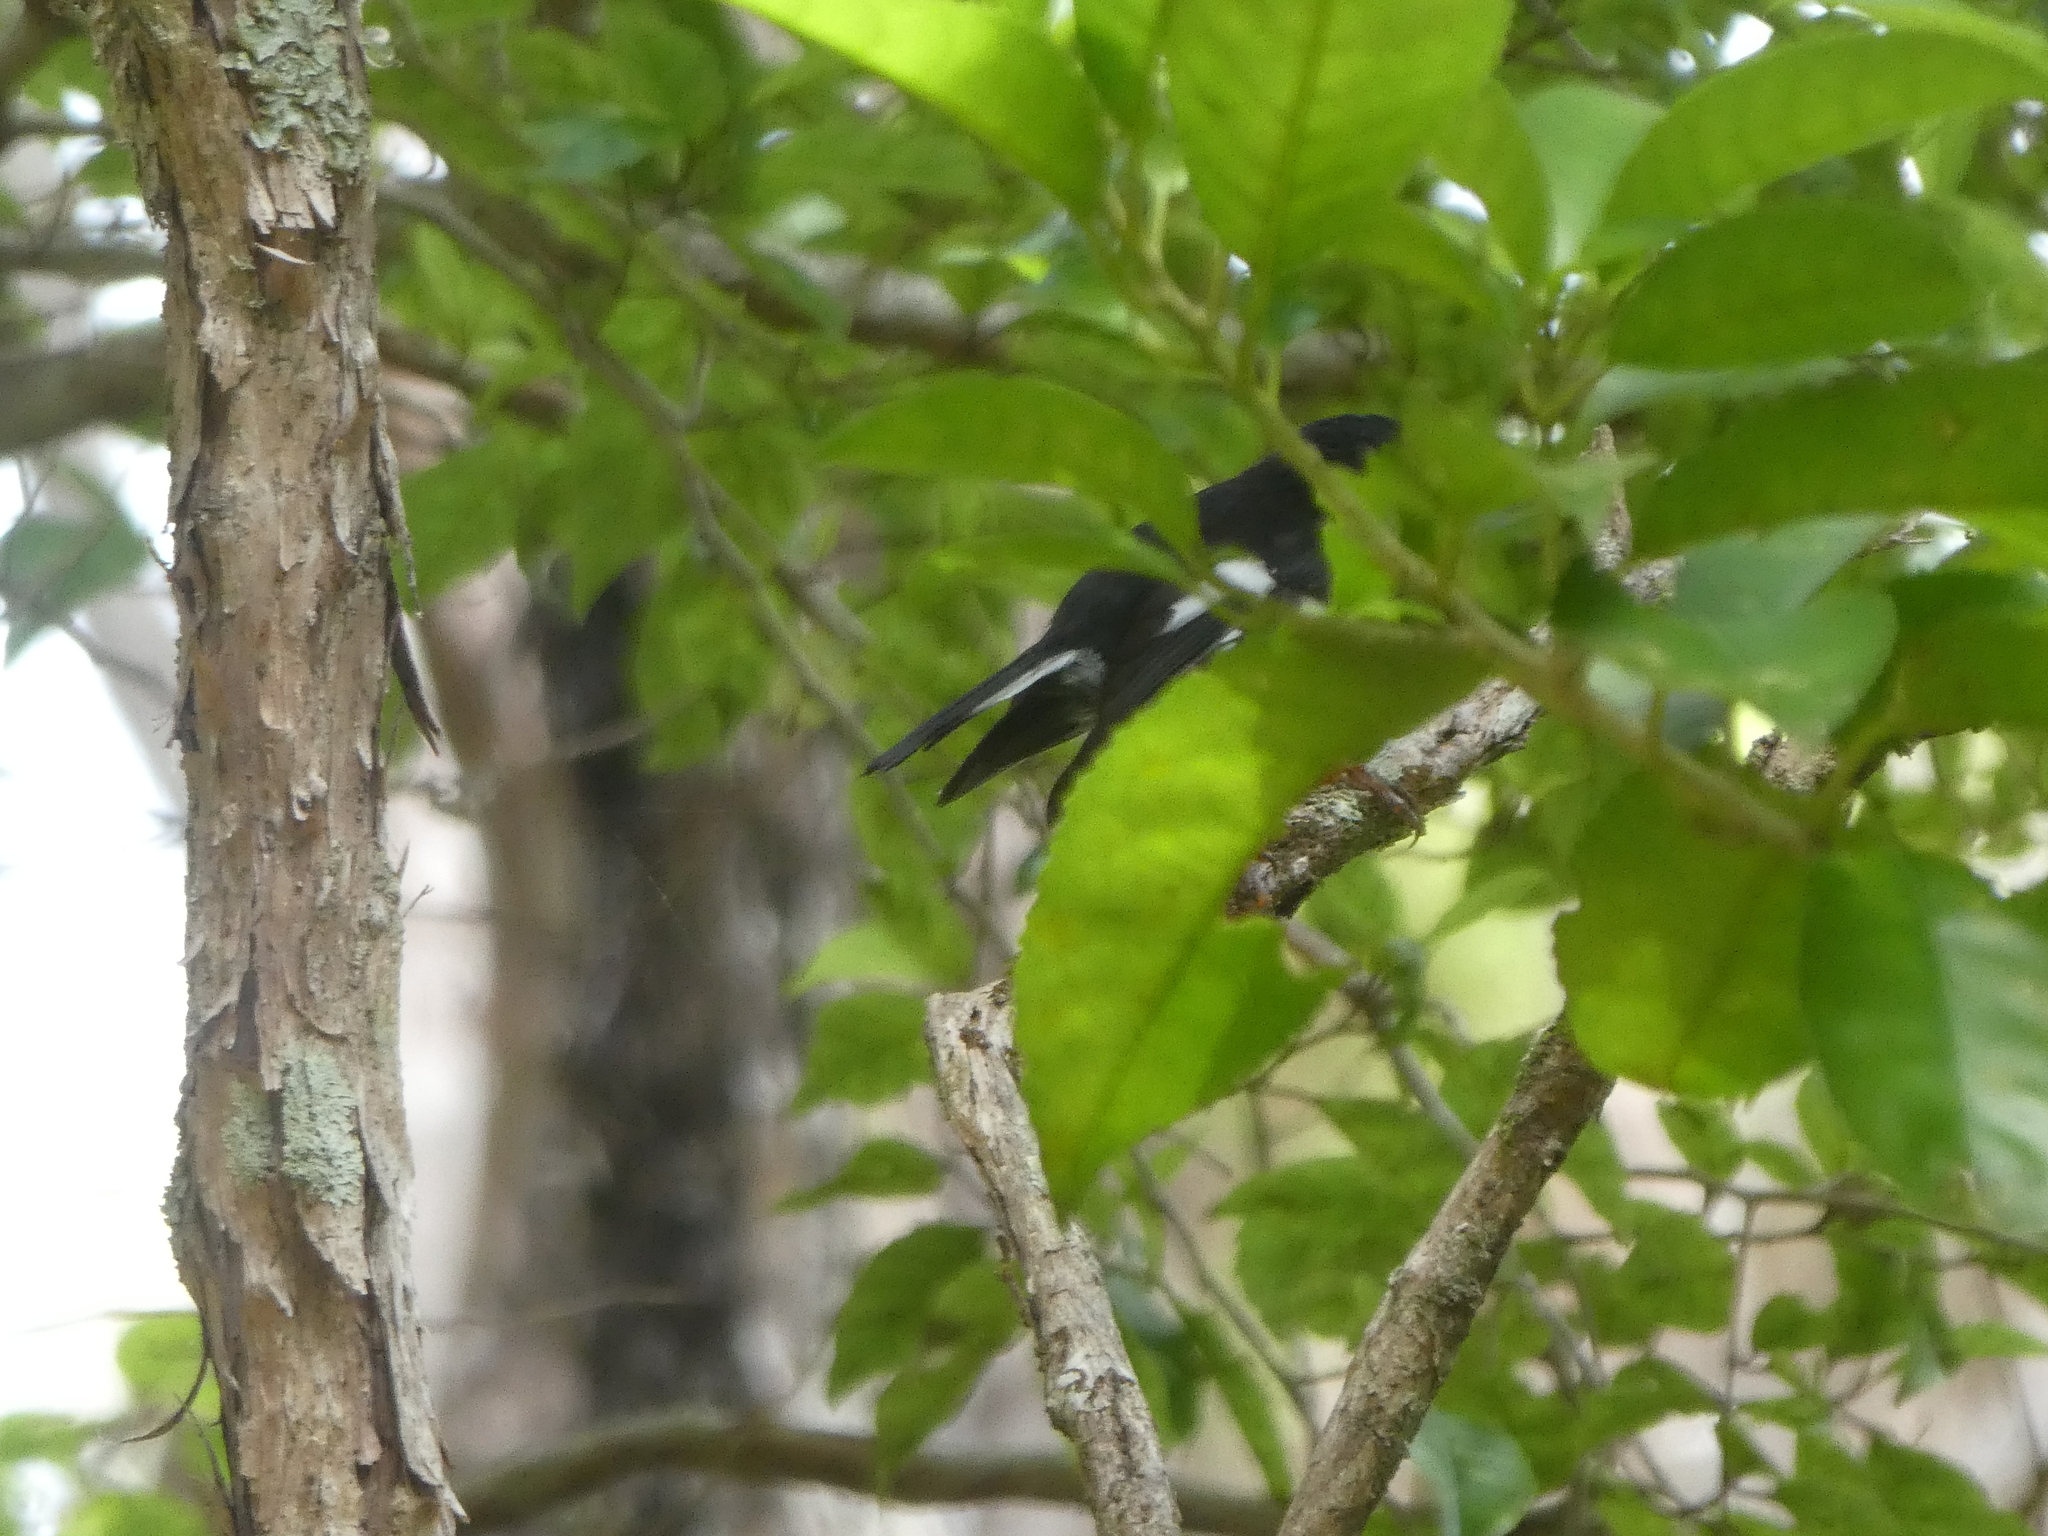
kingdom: Animalia
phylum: Chordata
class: Aves
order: Passeriformes
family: Petroicidae
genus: Petroica
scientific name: Petroica macrocephala
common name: Tomtit
